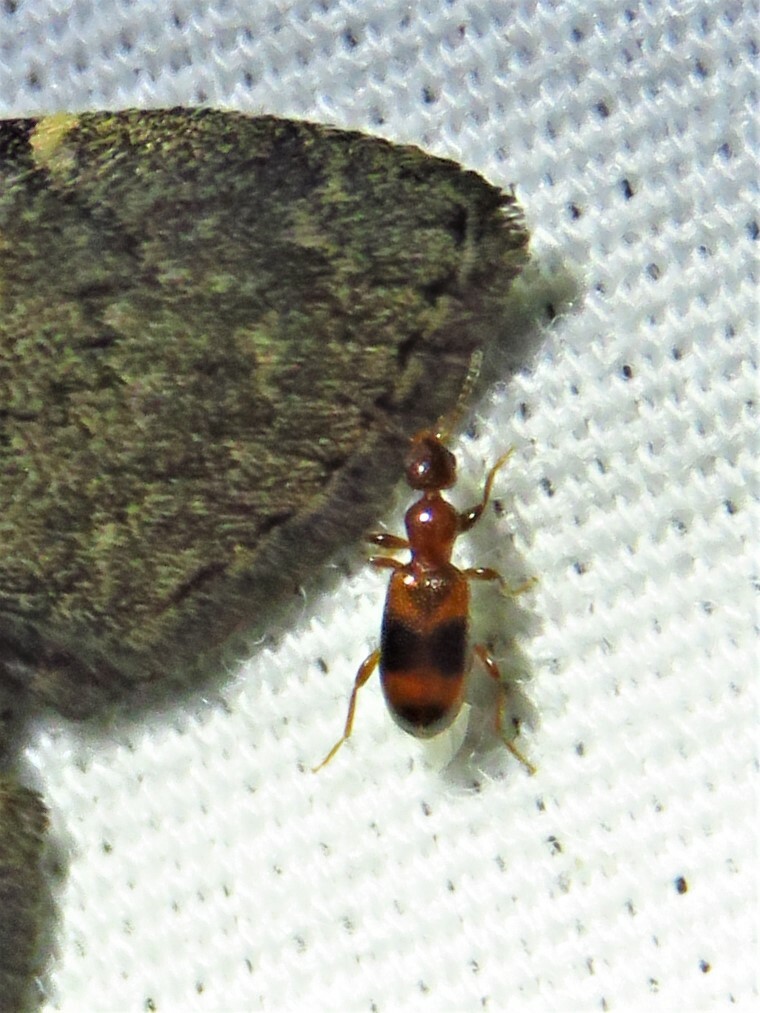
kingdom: Animalia
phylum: Arthropoda
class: Insecta
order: Coleoptera
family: Anthicidae
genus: Vacusus
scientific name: Vacusus vicinus
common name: Antlike flower beetle
